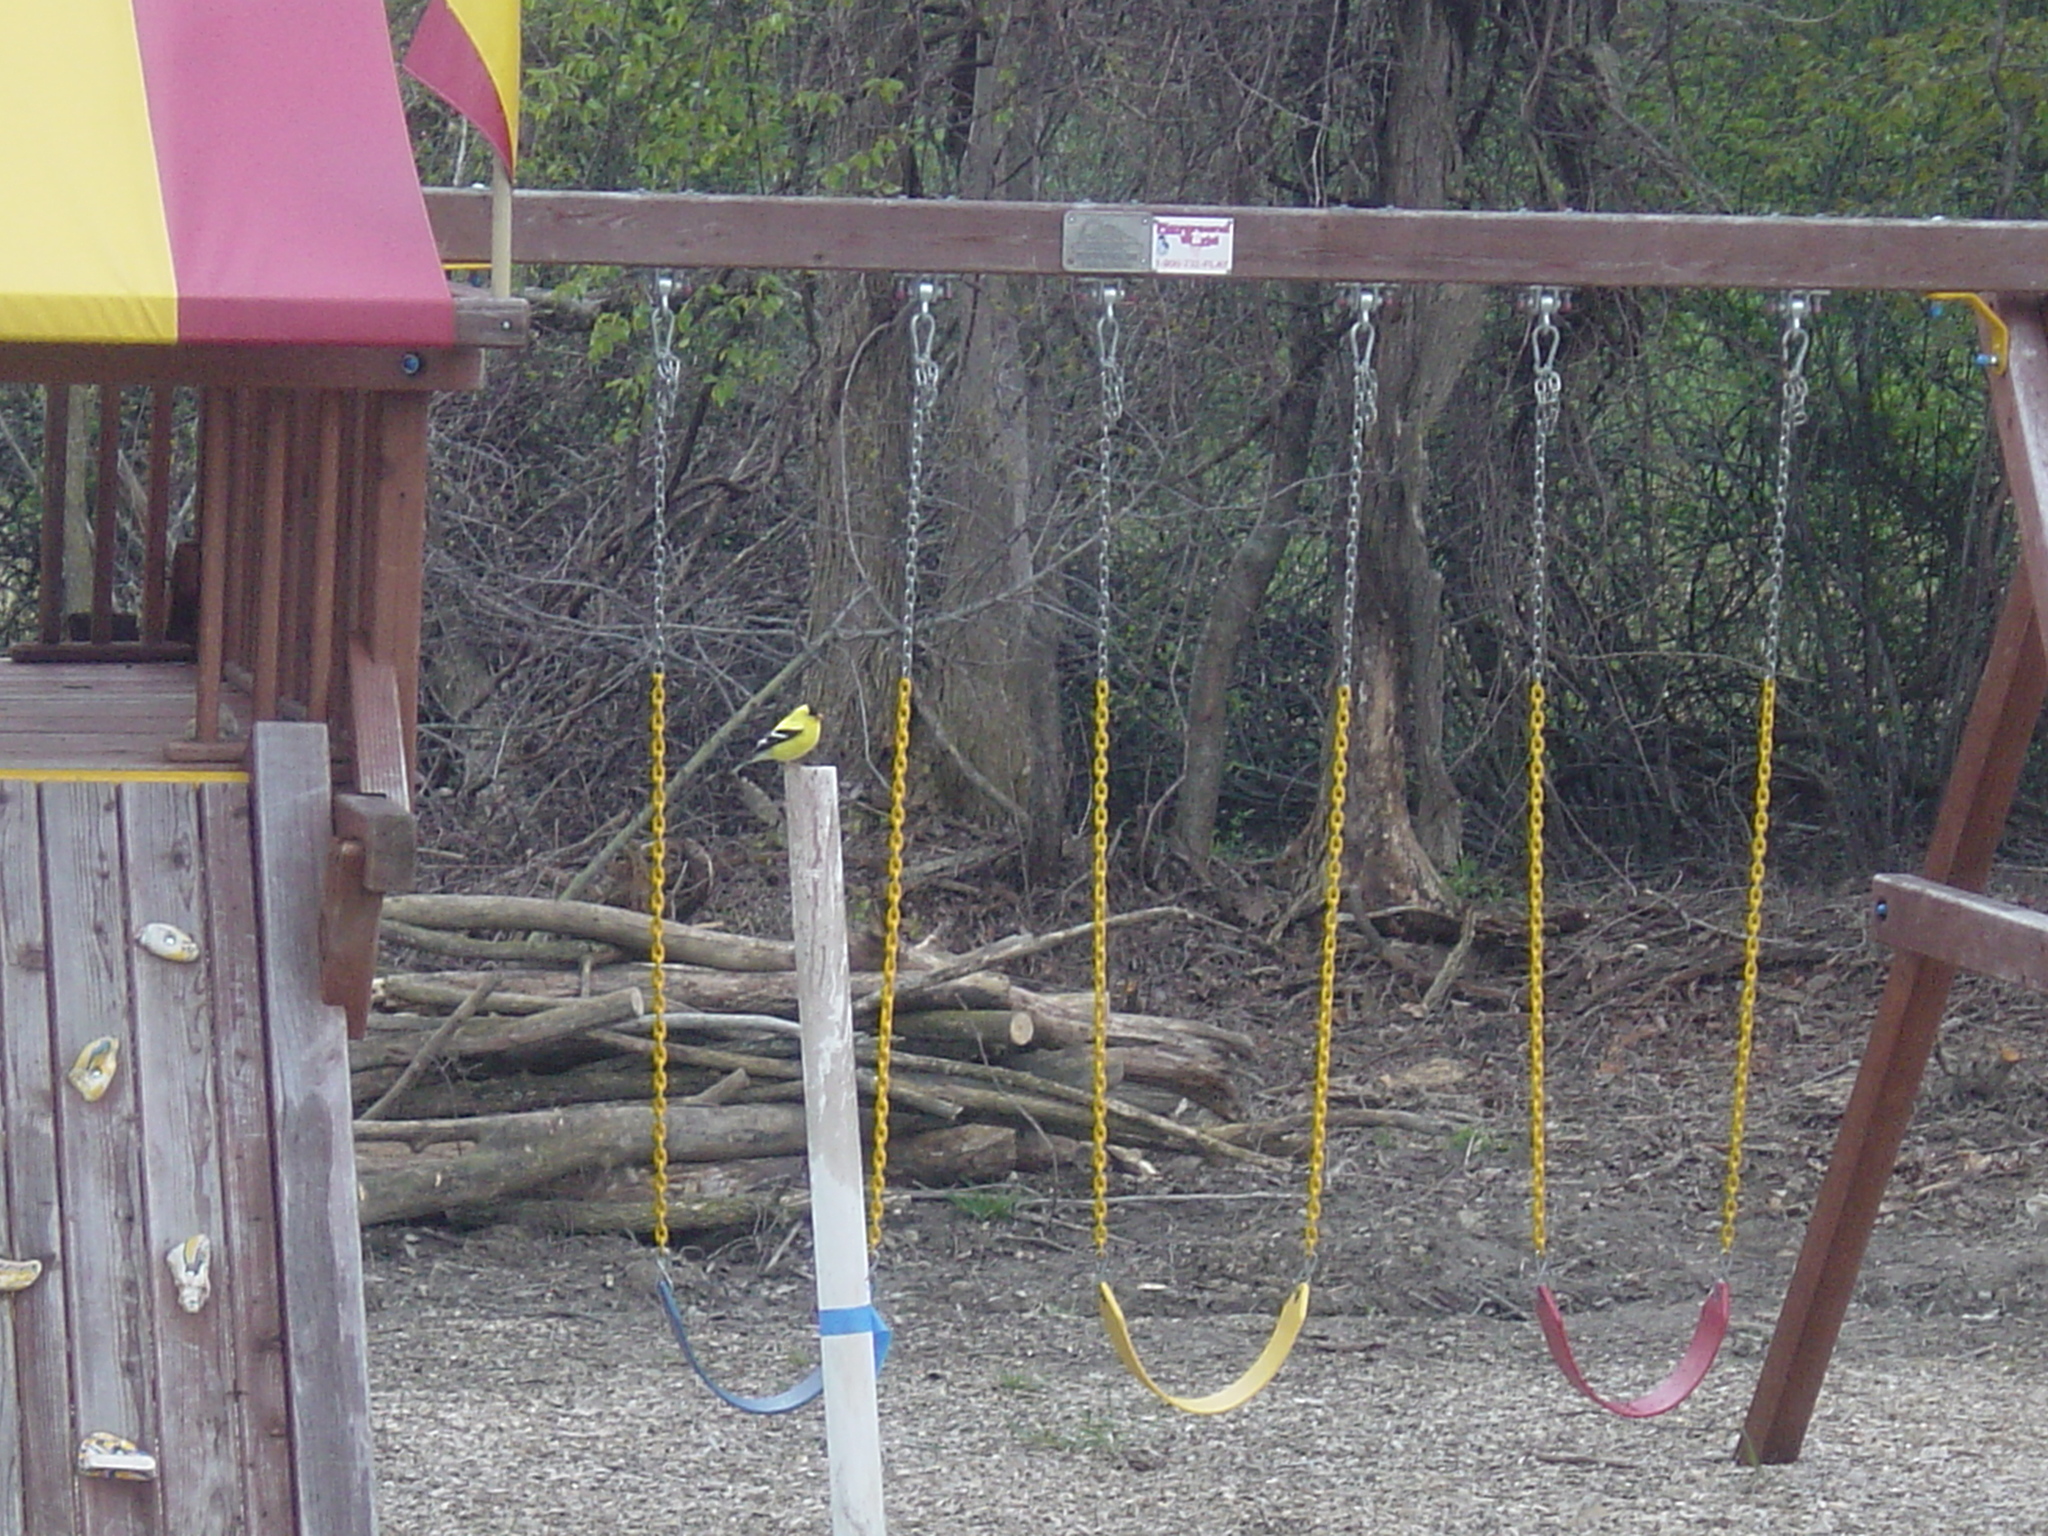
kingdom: Animalia
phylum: Chordata
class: Aves
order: Passeriformes
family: Fringillidae
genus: Spinus
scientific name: Spinus tristis
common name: American goldfinch
